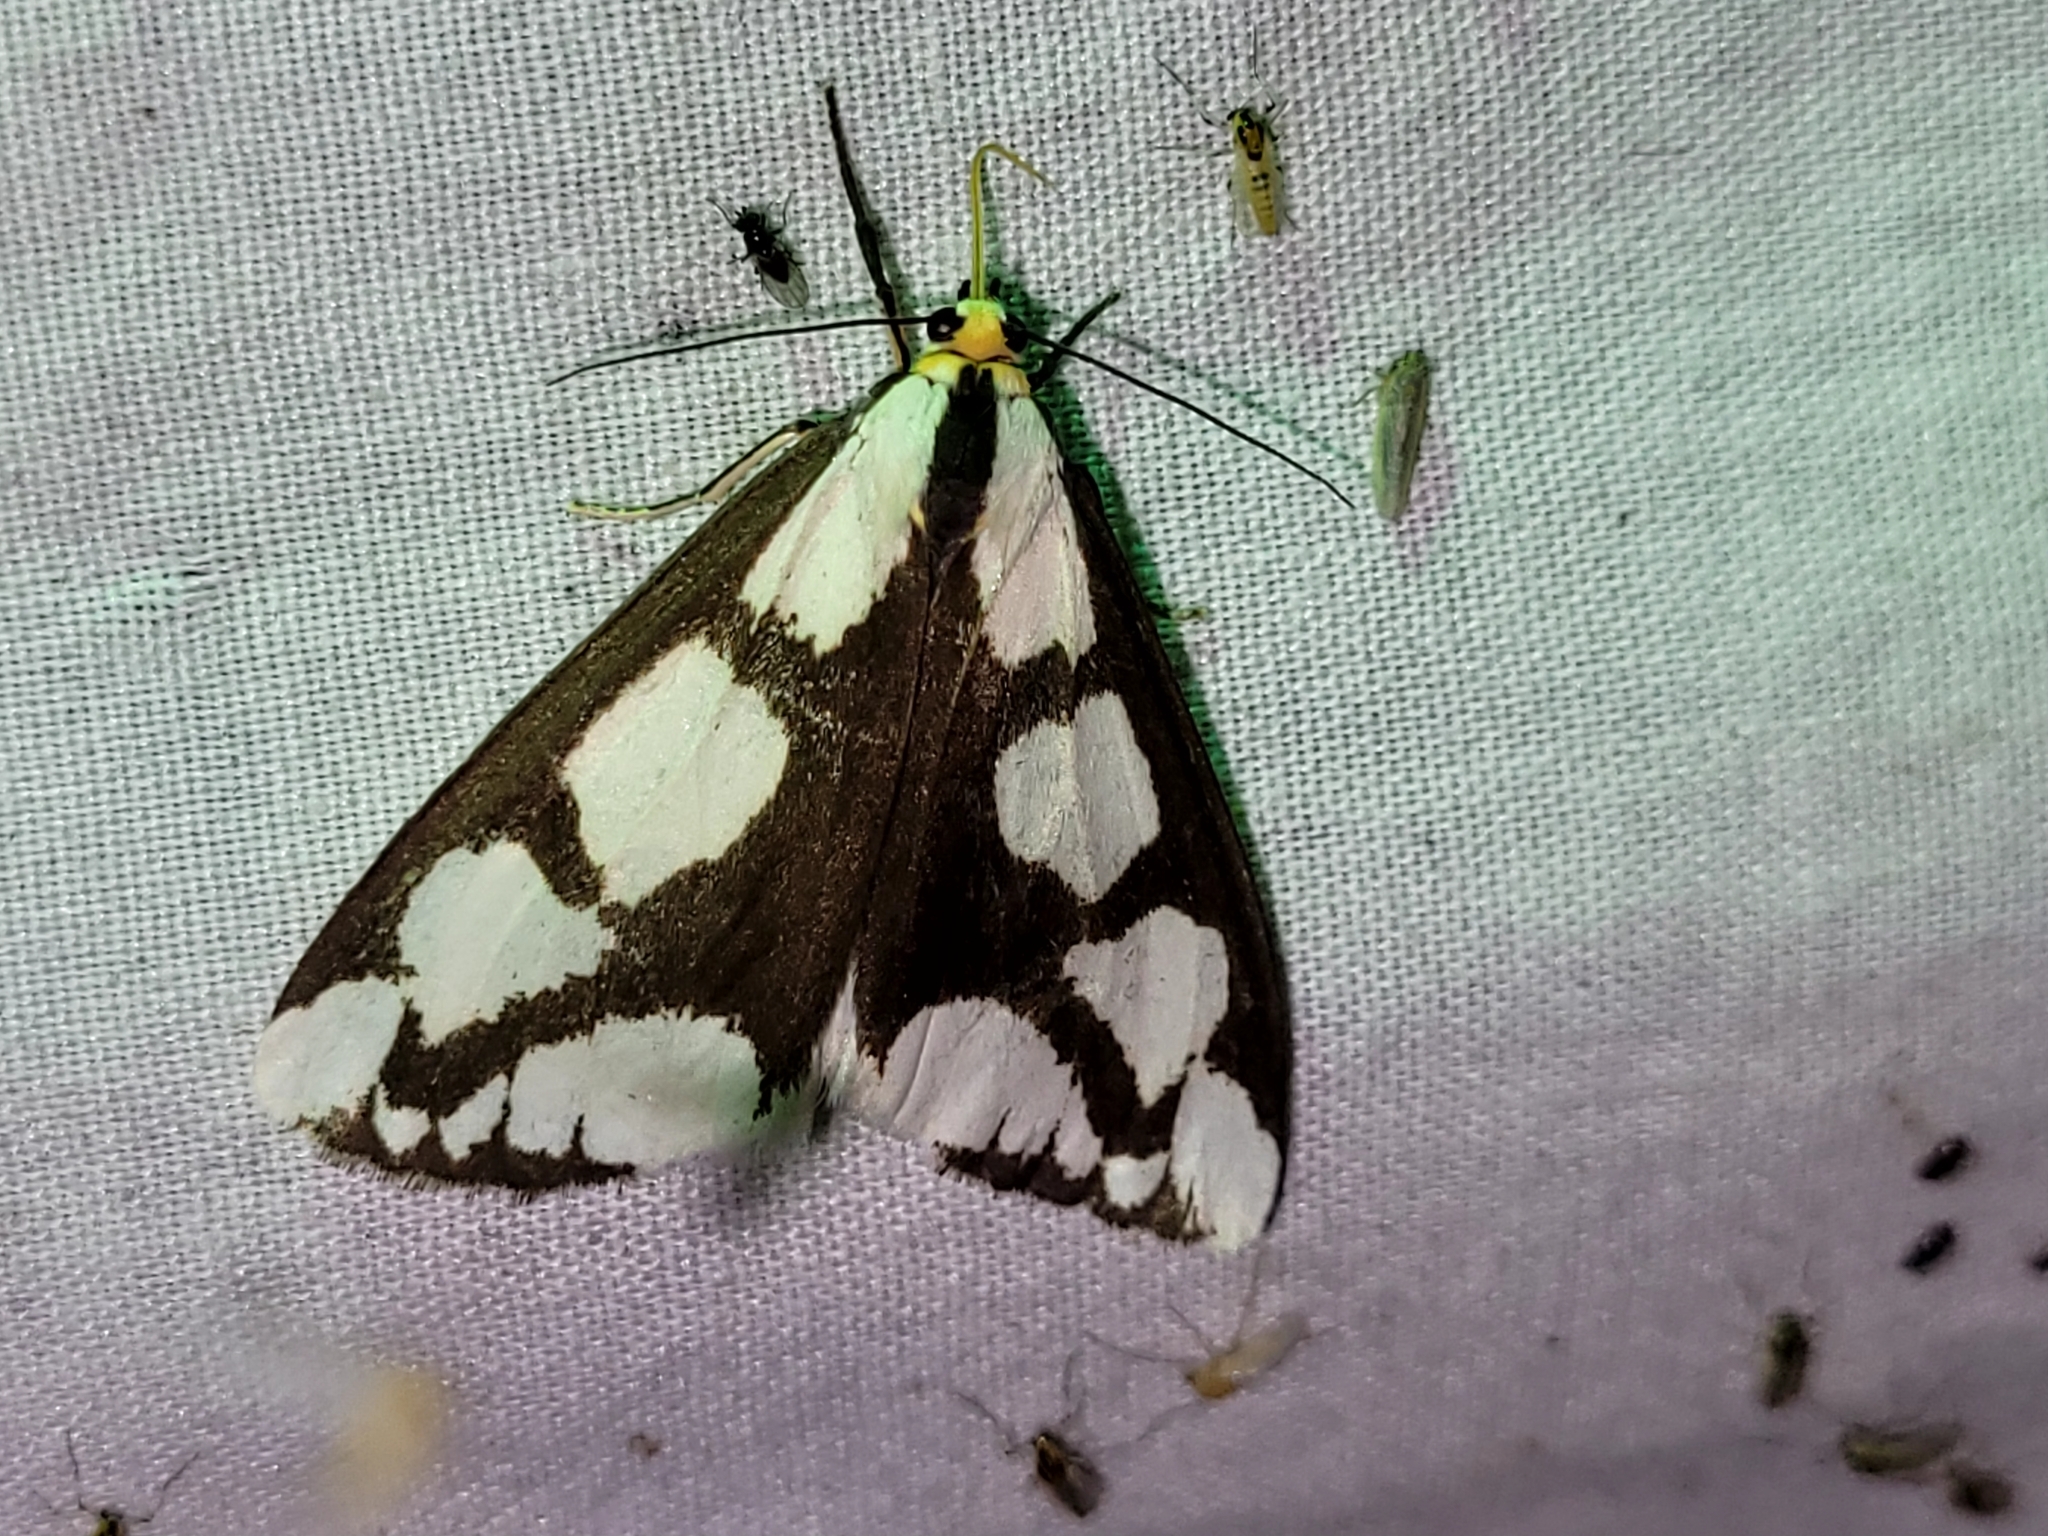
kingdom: Animalia
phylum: Arthropoda
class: Insecta
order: Lepidoptera
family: Erebidae
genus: Haploa
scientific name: Haploa lecontei
